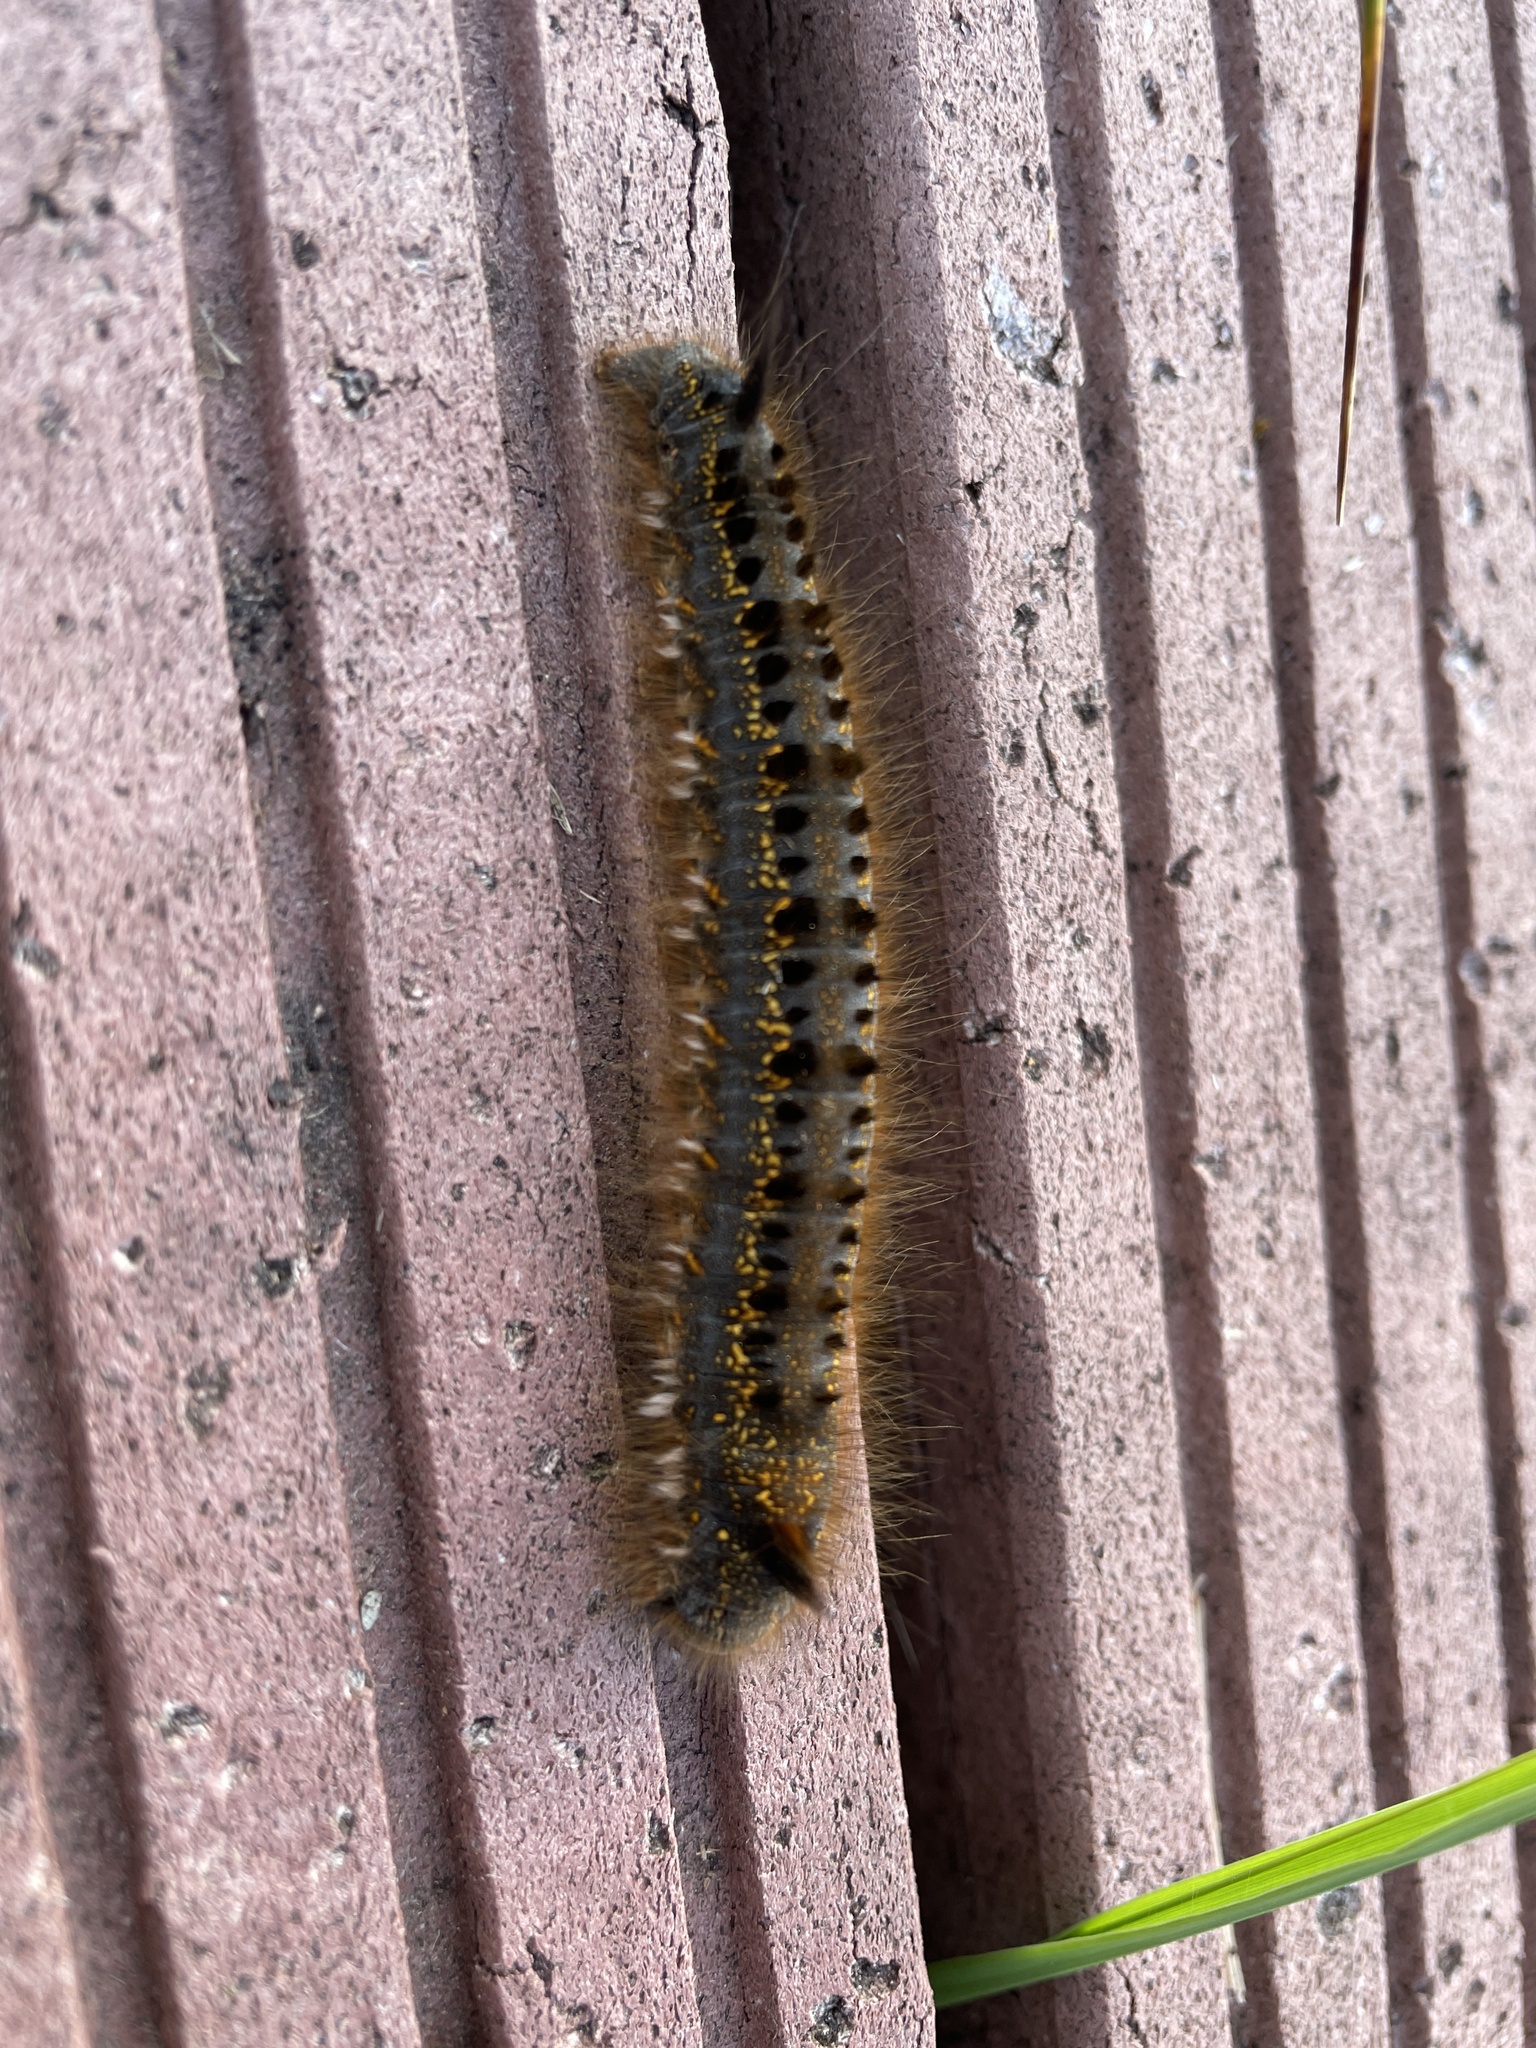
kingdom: Animalia
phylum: Arthropoda
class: Insecta
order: Lepidoptera
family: Lasiocampidae
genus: Euthrix
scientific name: Euthrix potatoria
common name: Drinker
